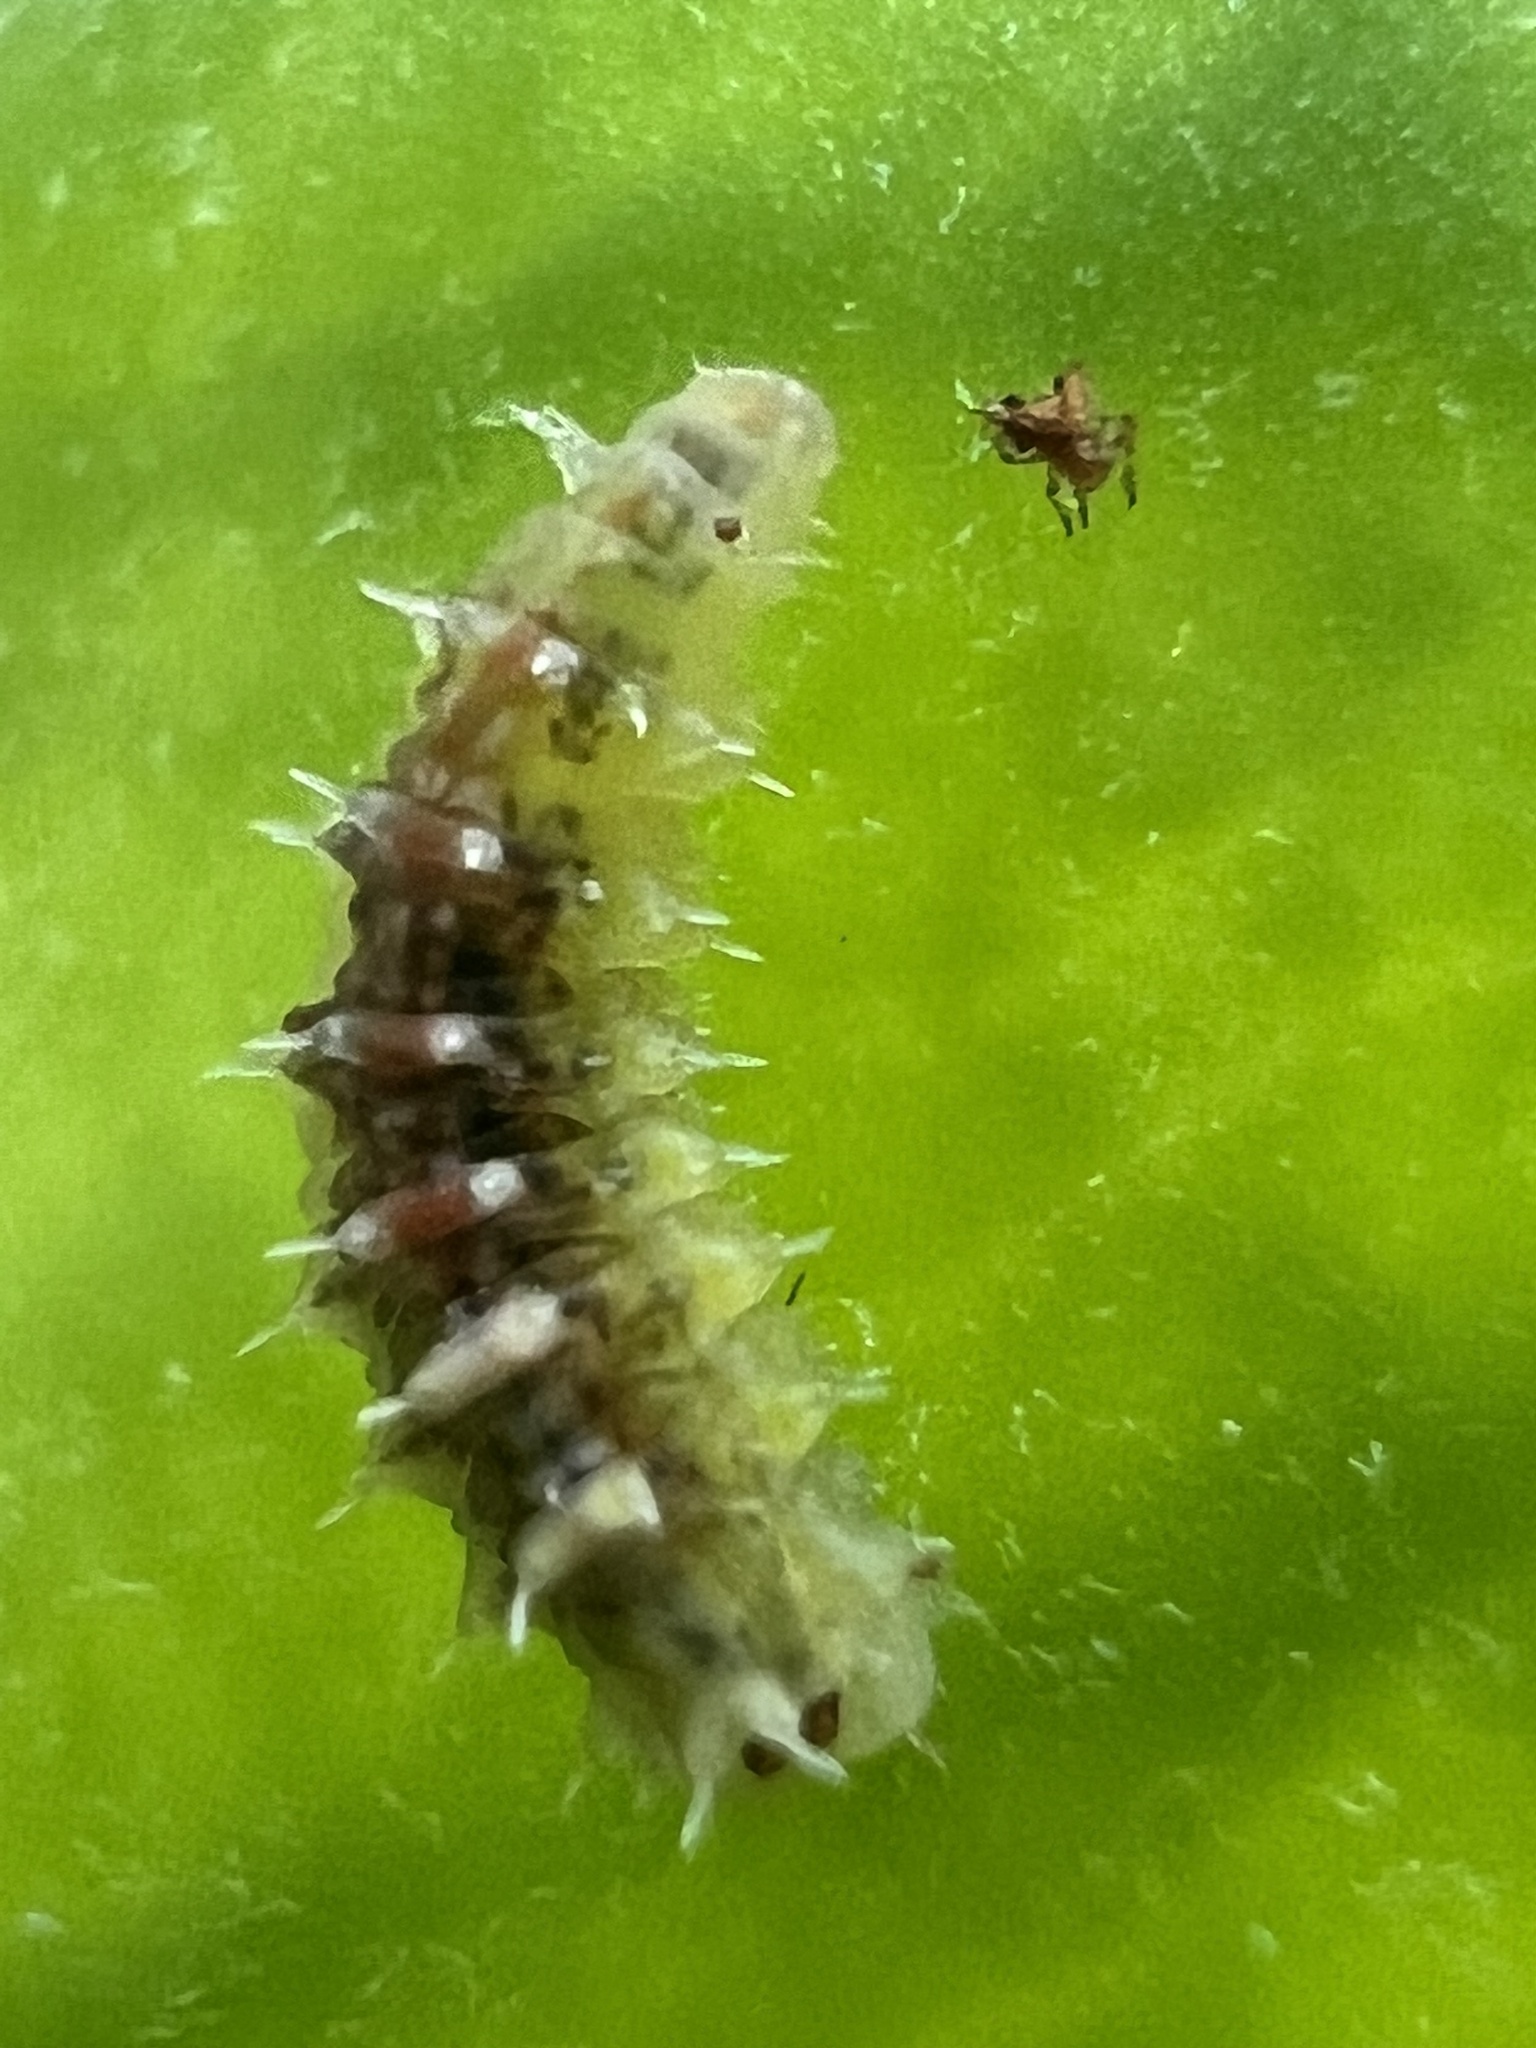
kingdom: Animalia
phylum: Arthropoda
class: Insecta
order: Diptera
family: Syrphidae
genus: Dioprosopa
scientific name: Dioprosopa clavatus
